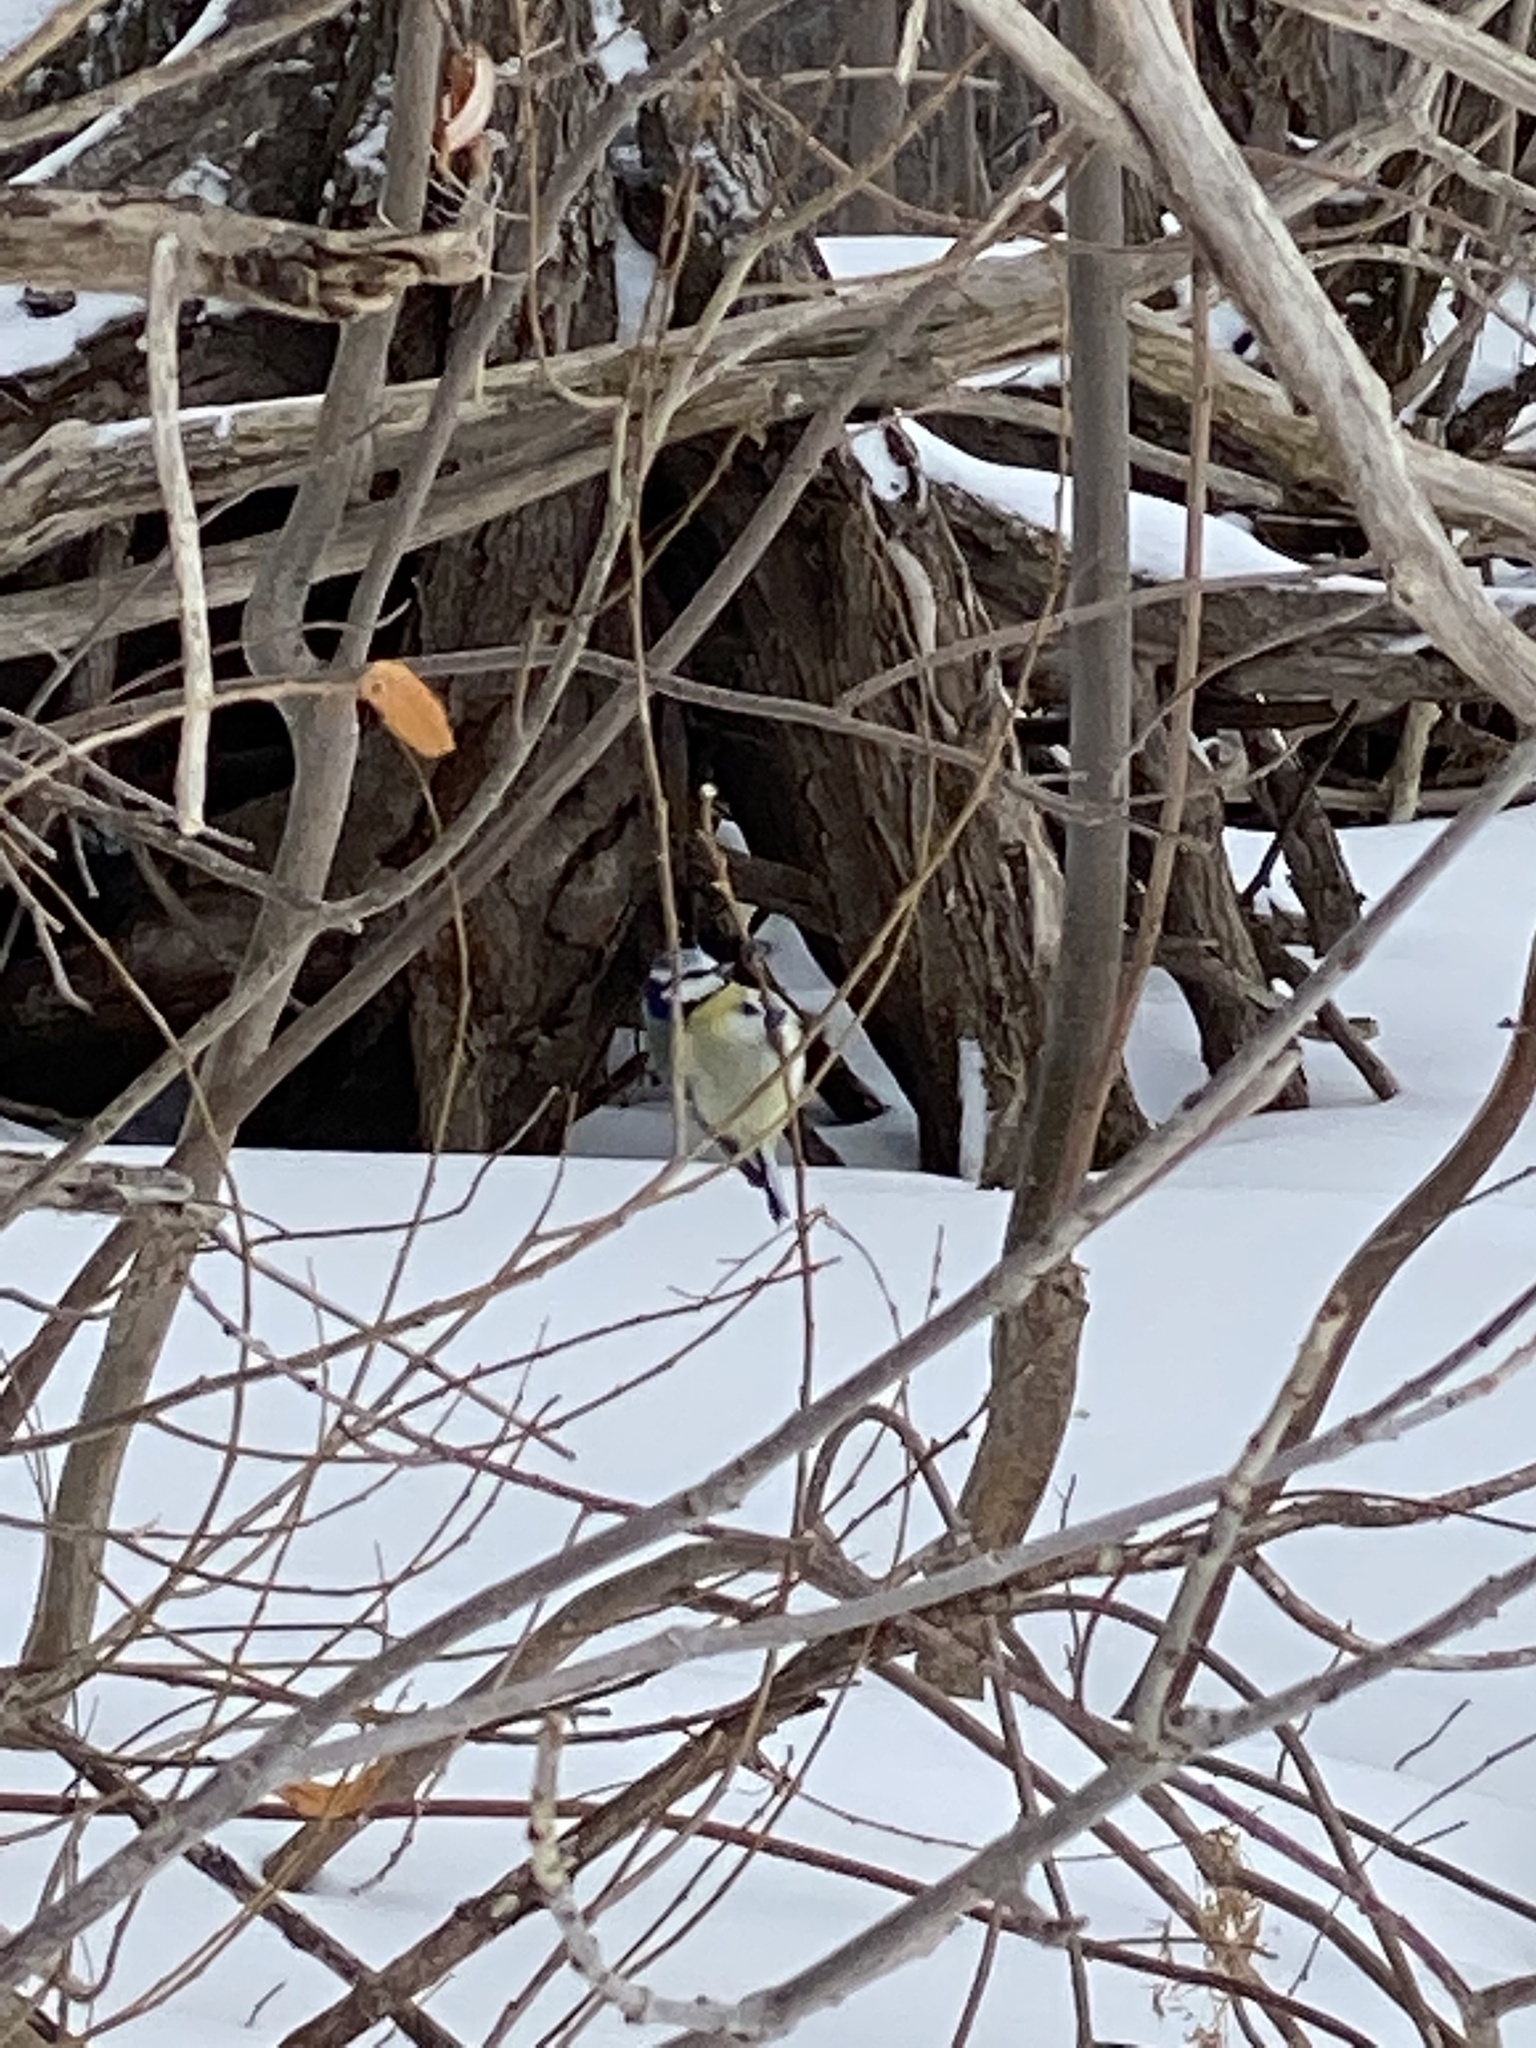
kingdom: Animalia
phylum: Chordata
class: Aves
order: Passeriformes
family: Paridae
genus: Cyanistes
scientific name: Cyanistes caeruleus
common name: Eurasian blue tit
